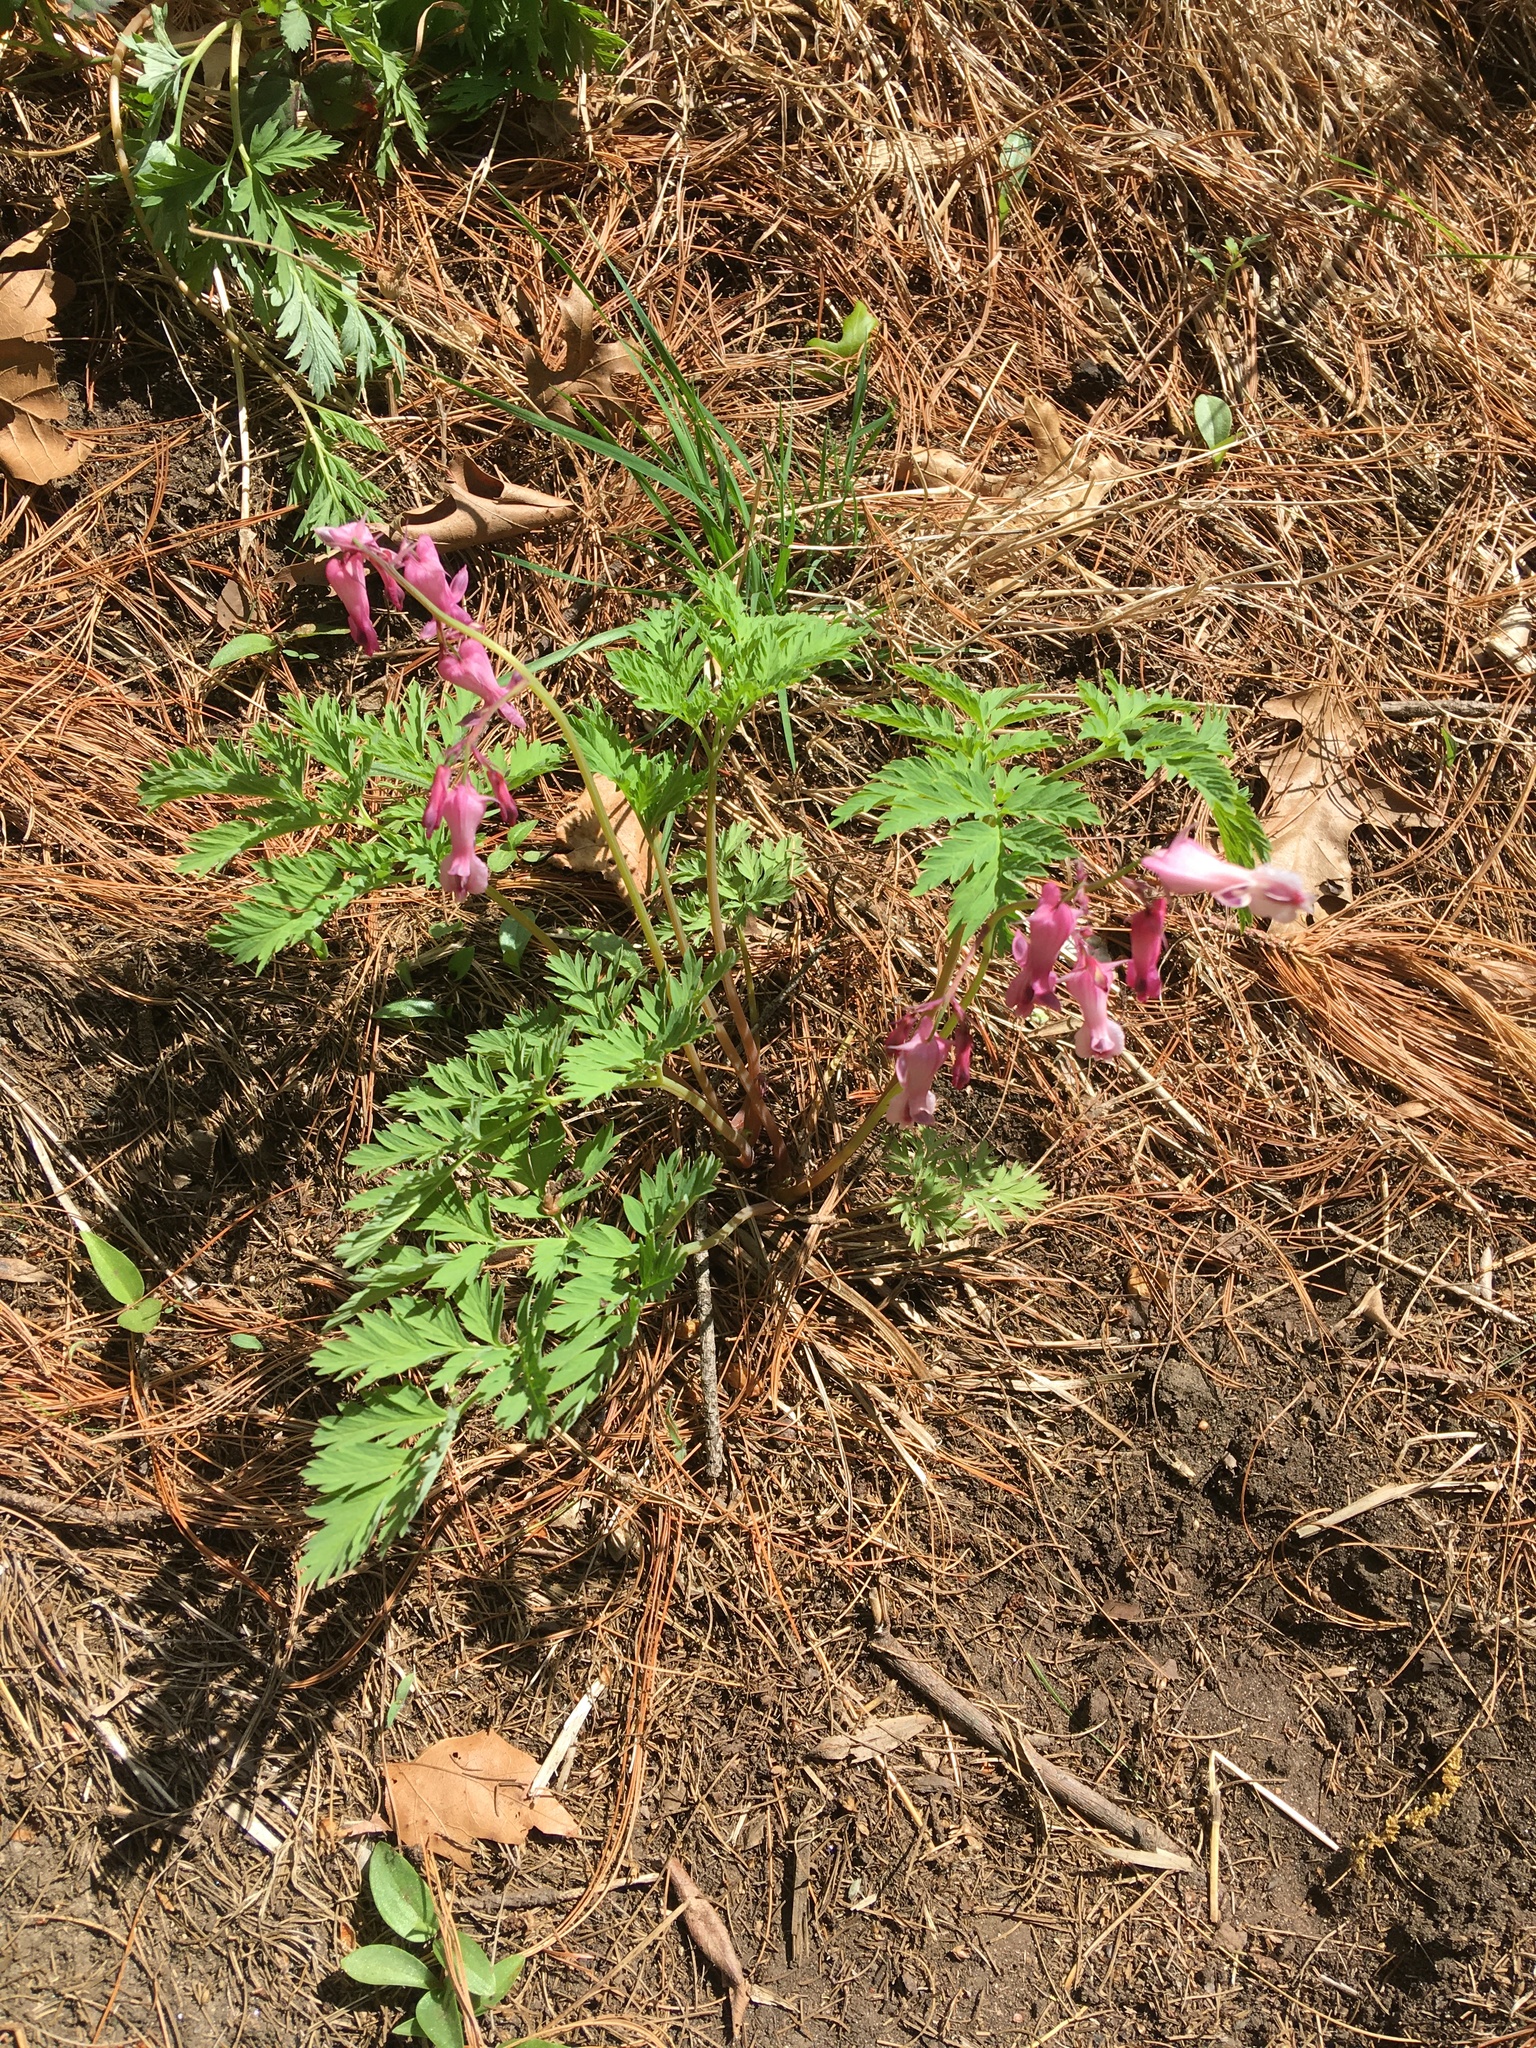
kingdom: Plantae
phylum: Tracheophyta
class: Magnoliopsida
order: Ranunculales
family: Papaveraceae
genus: Dicentra
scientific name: Dicentra eximia
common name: Turkey-corn
